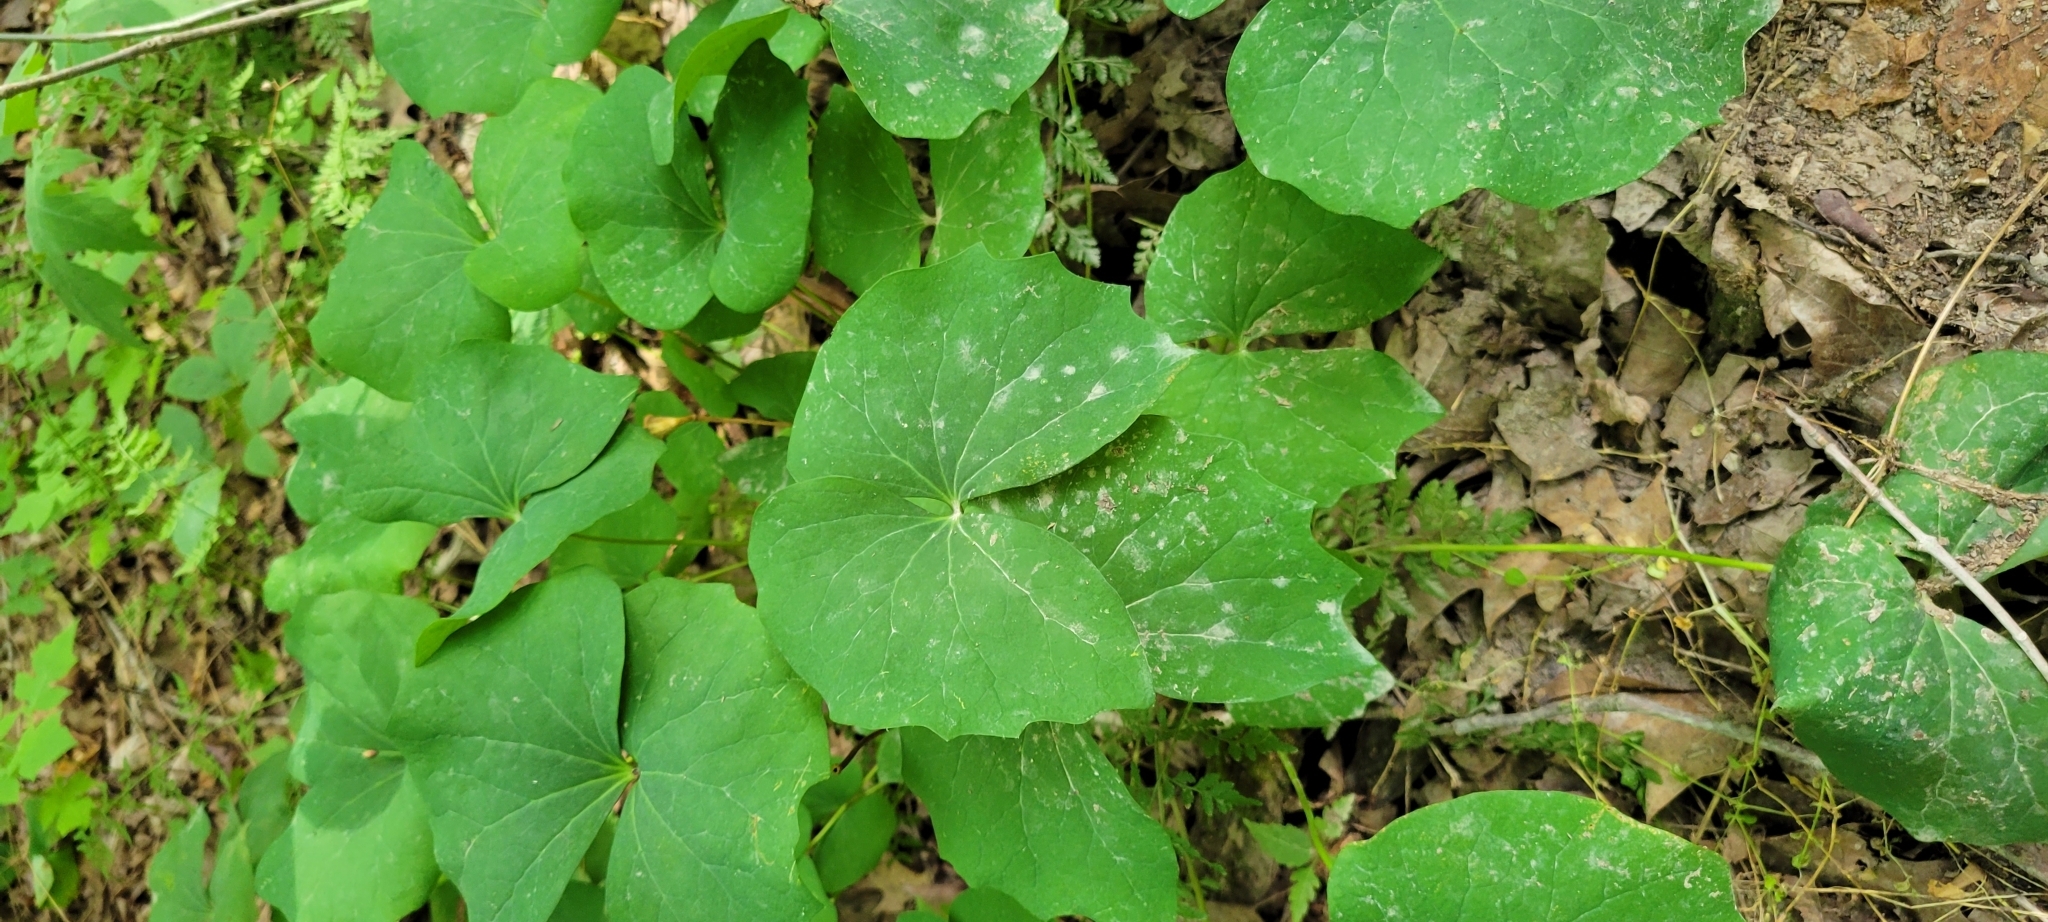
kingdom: Plantae
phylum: Tracheophyta
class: Magnoliopsida
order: Ranunculales
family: Berberidaceae
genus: Jeffersonia
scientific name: Jeffersonia diphylla
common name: Rheumatism-root
